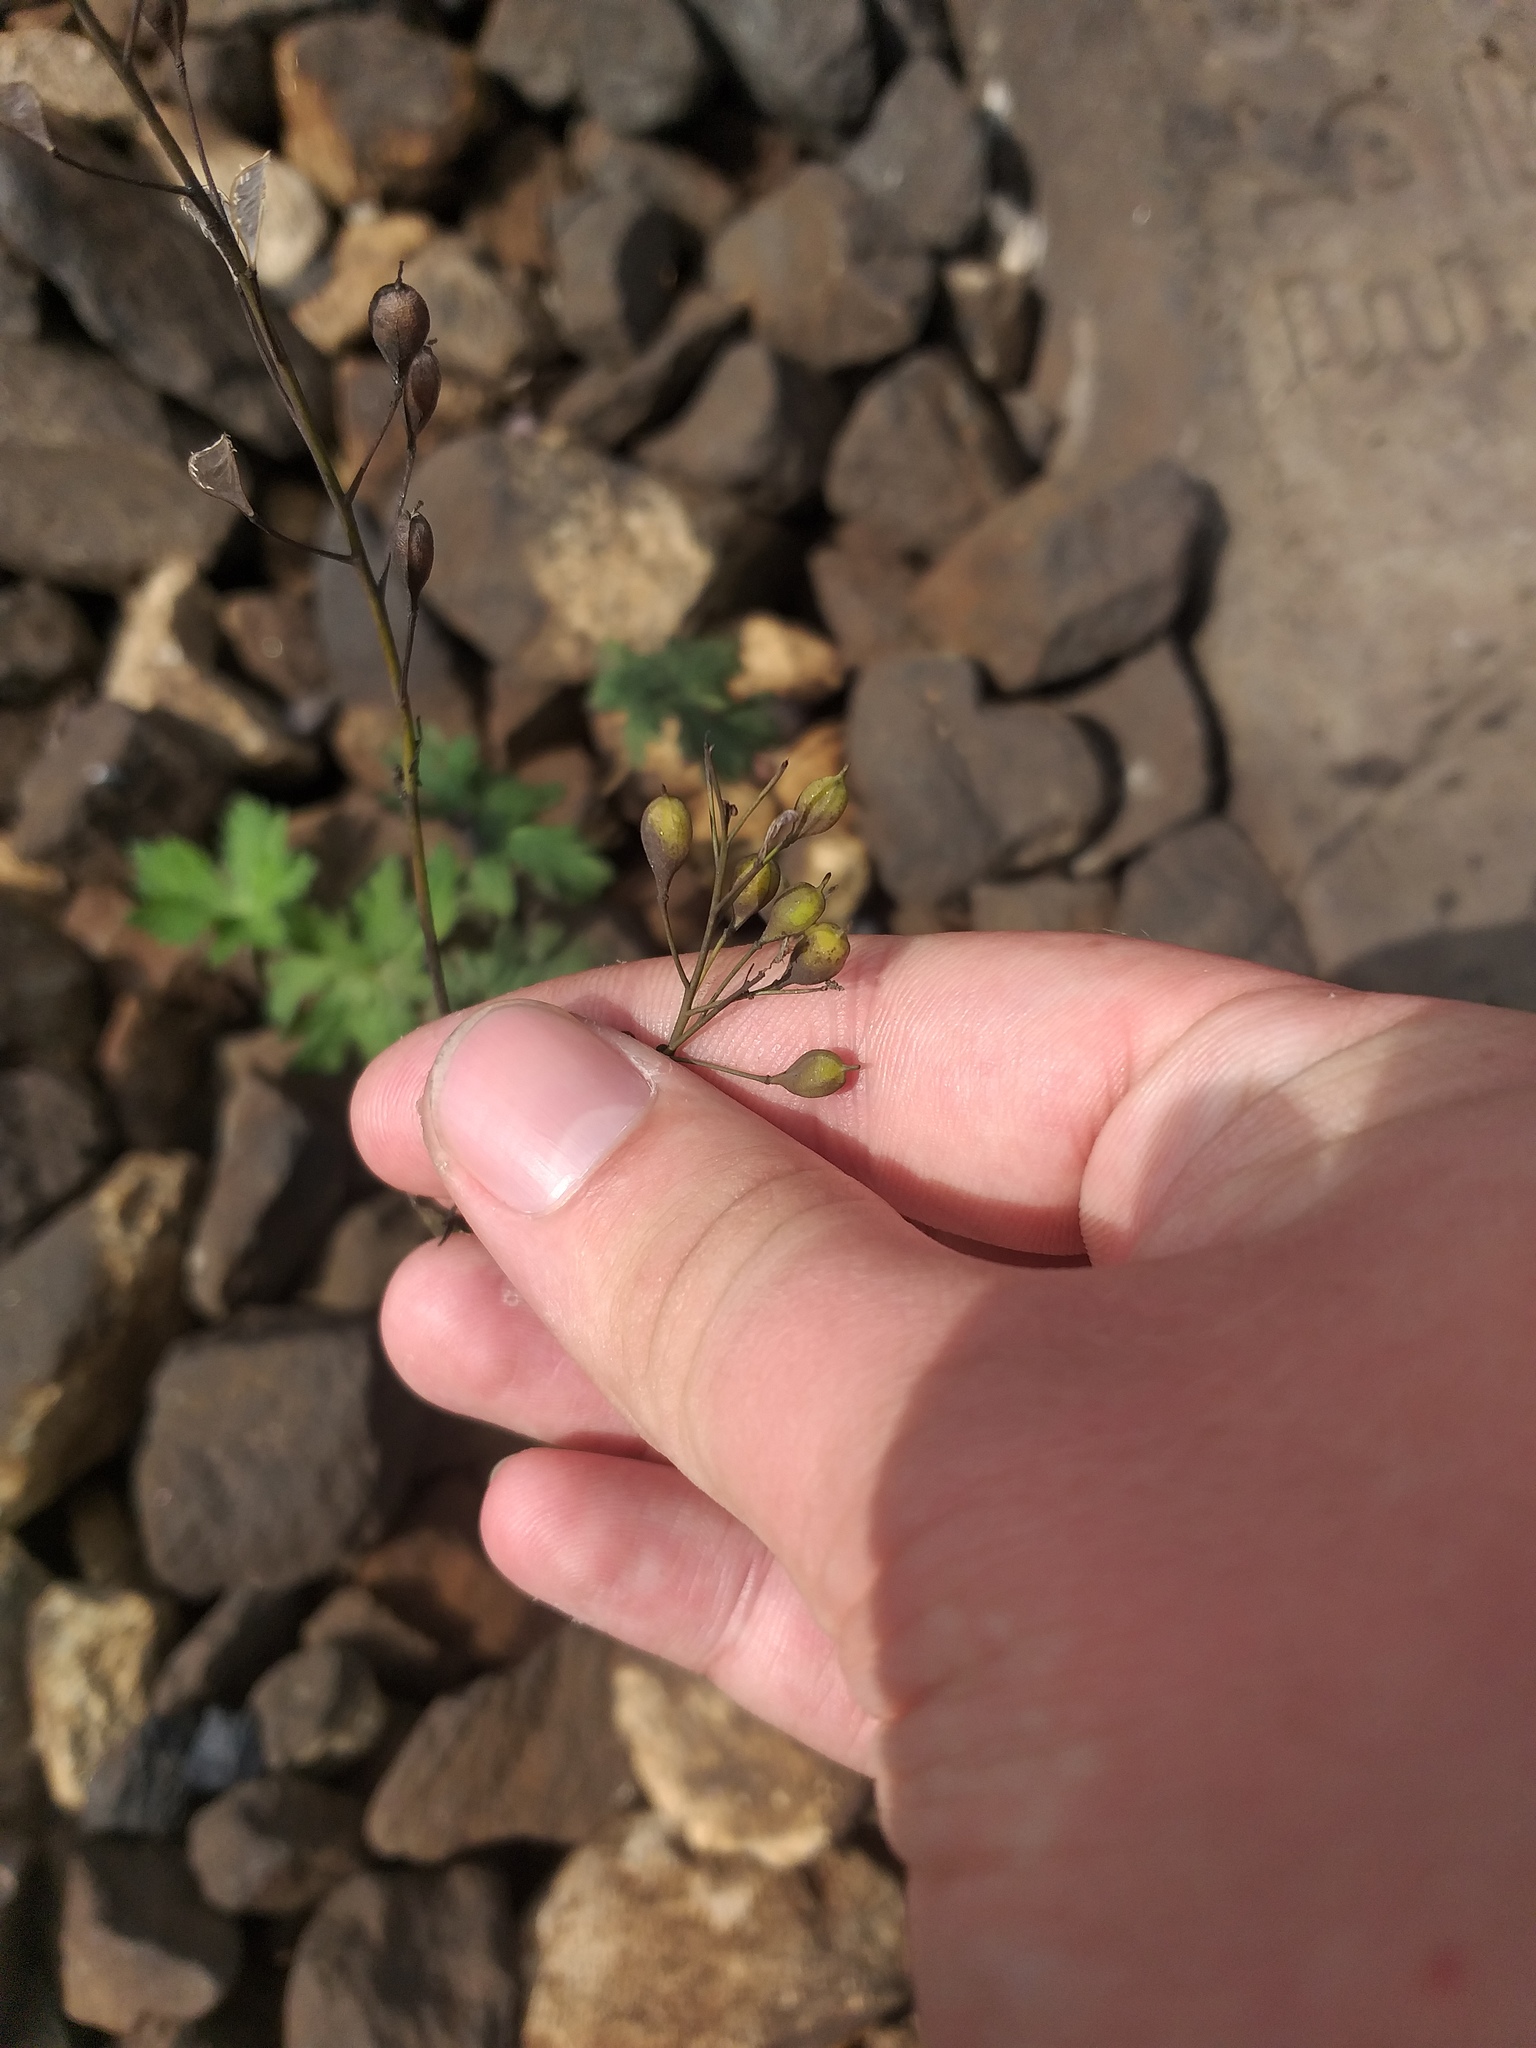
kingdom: Plantae
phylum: Tracheophyta
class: Magnoliopsida
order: Brassicales
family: Brassicaceae
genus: Camelina
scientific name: Camelina sativa
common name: Gold-of-pleasure
